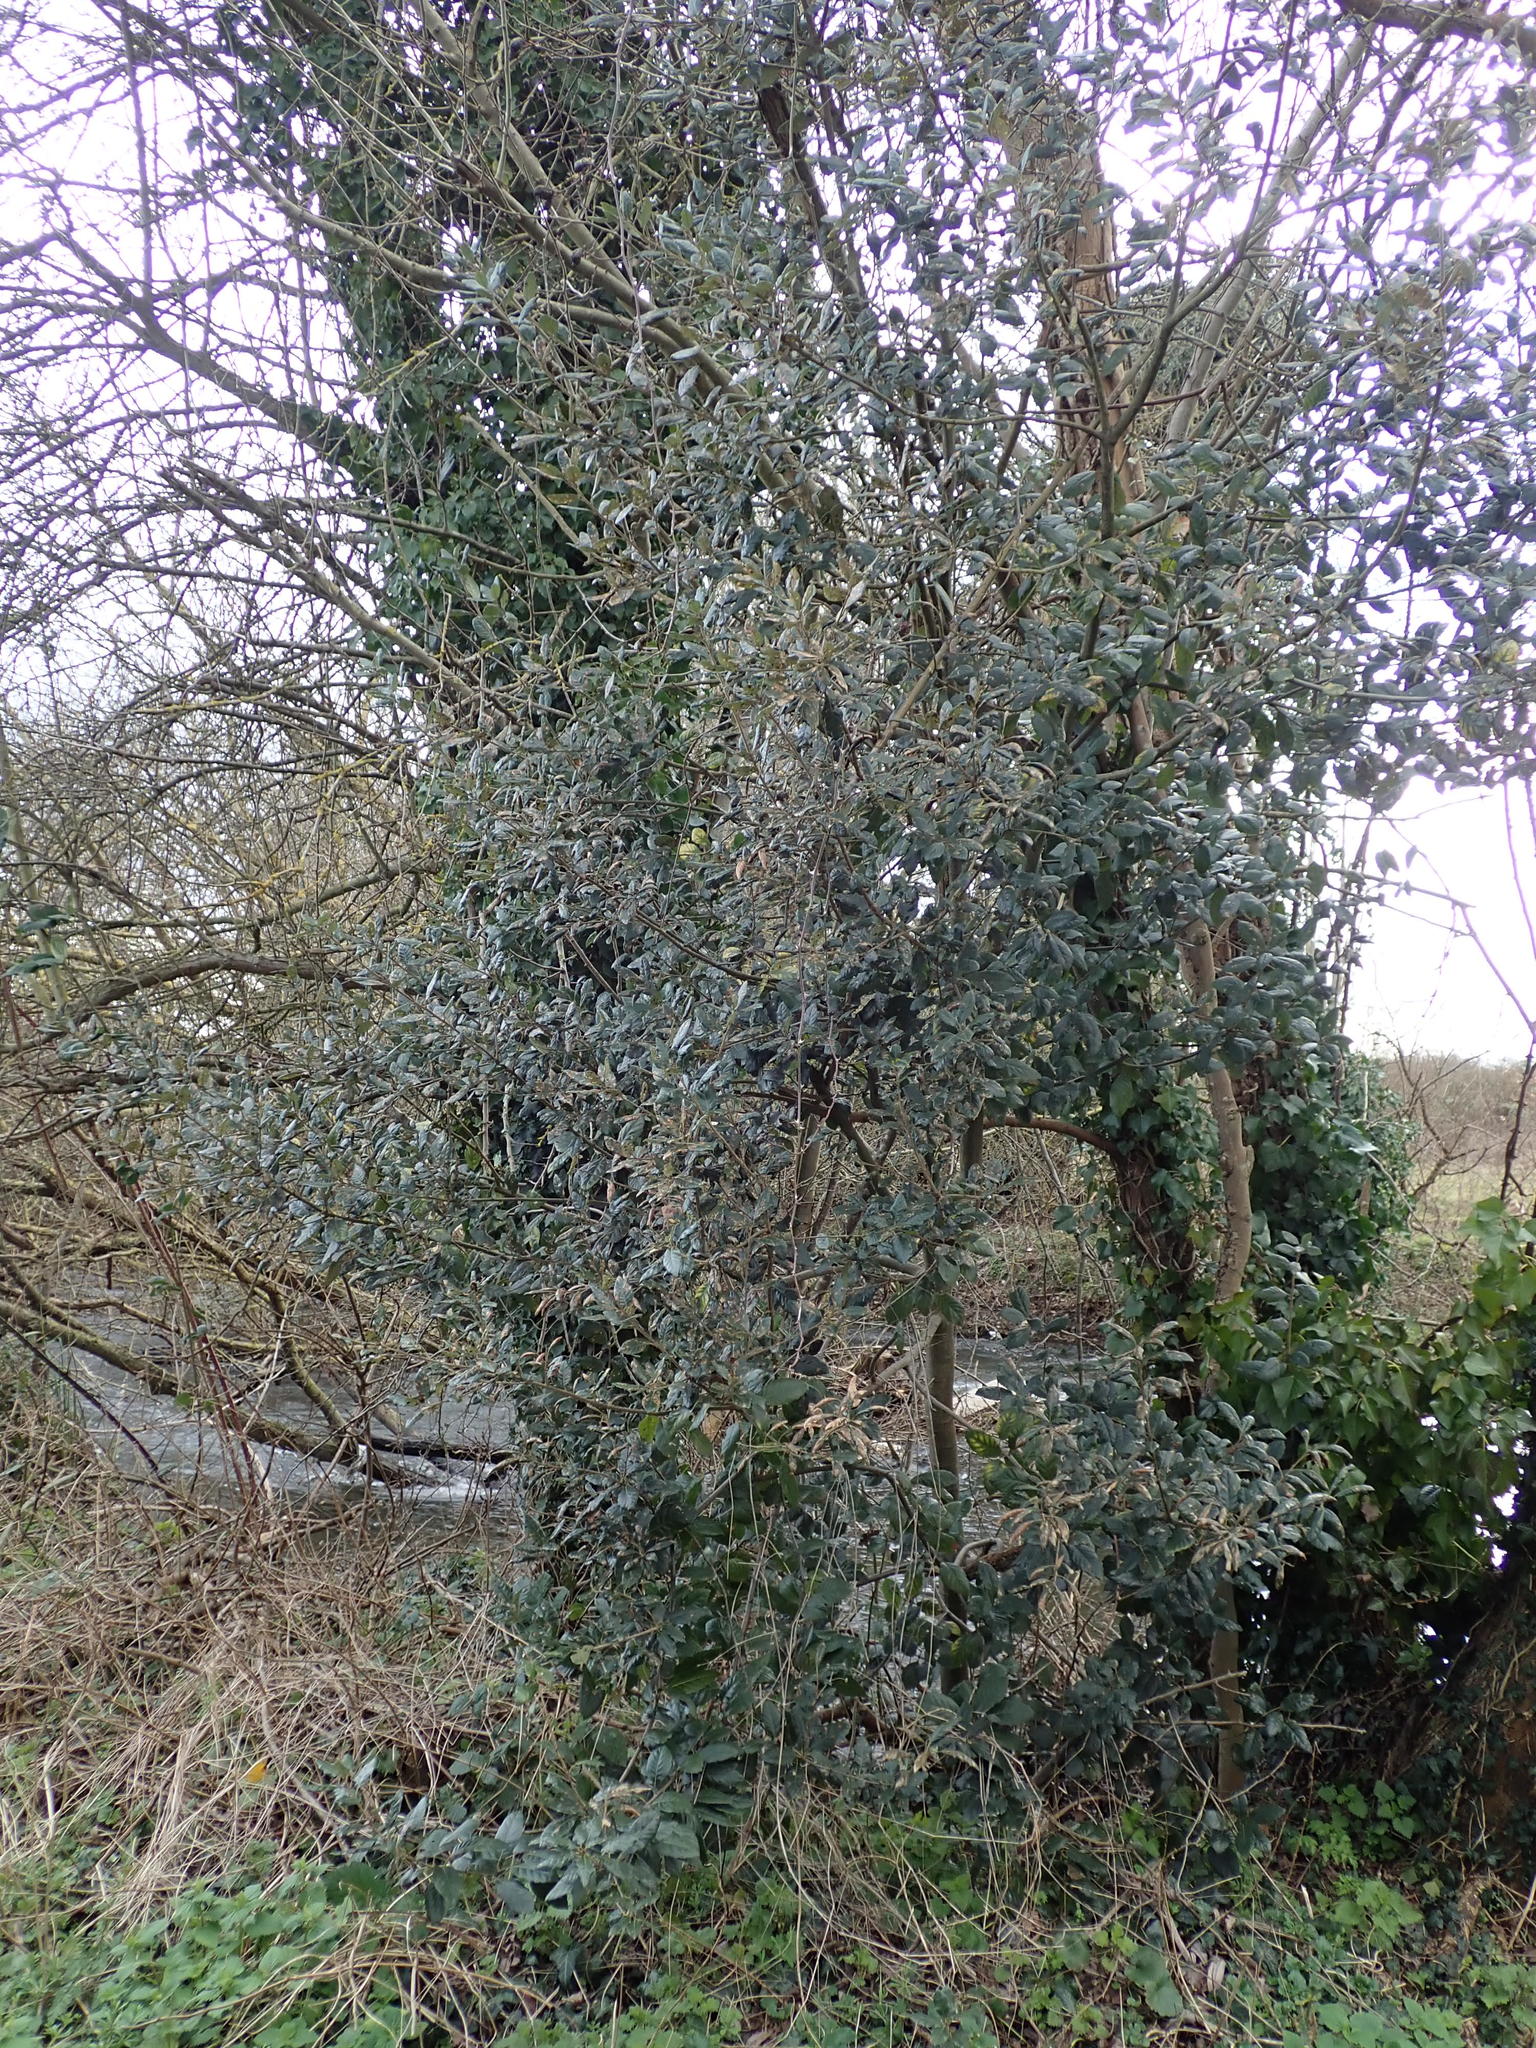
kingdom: Plantae
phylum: Tracheophyta
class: Magnoliopsida
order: Fagales
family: Fagaceae
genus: Quercus
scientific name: Quercus ilex
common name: Evergreen oak
